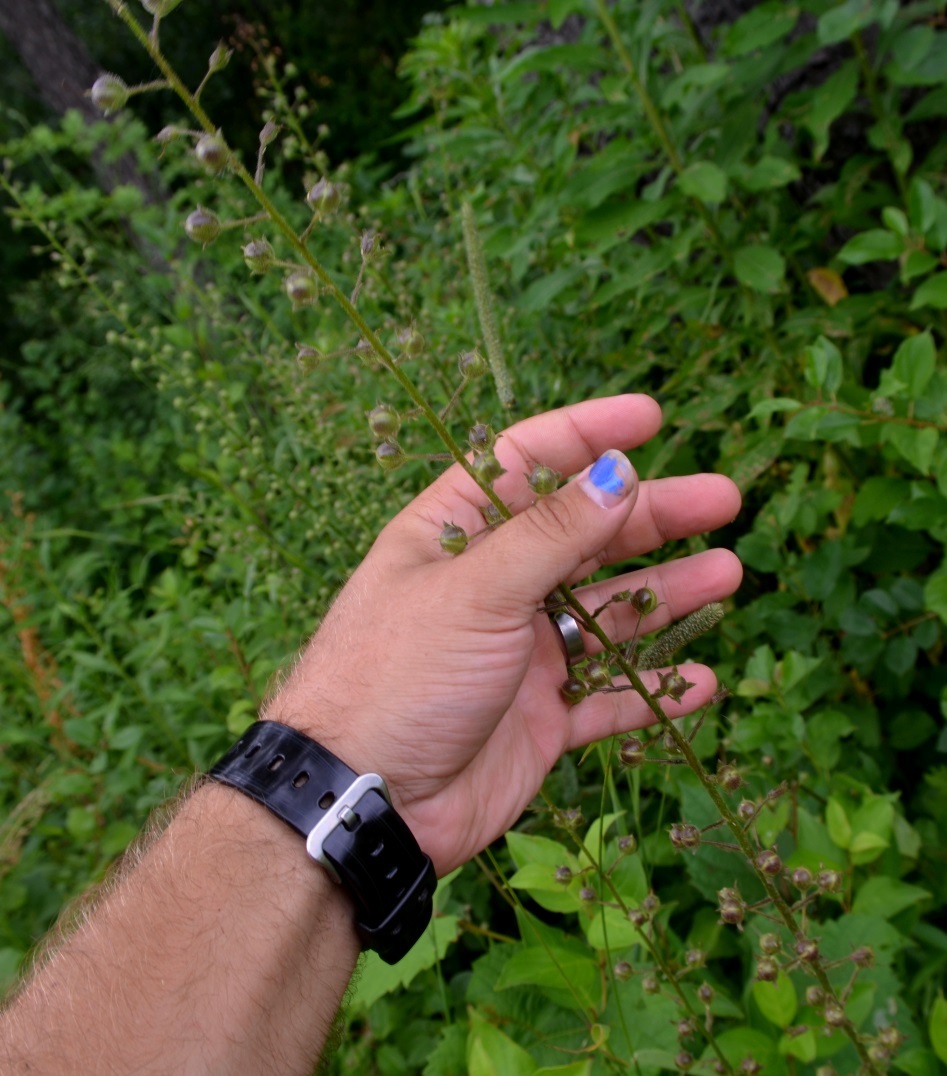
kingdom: Plantae
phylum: Tracheophyta
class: Magnoliopsida
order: Lamiales
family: Scrophulariaceae
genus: Verbascum
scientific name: Verbascum blattaria
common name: Moth mullein
